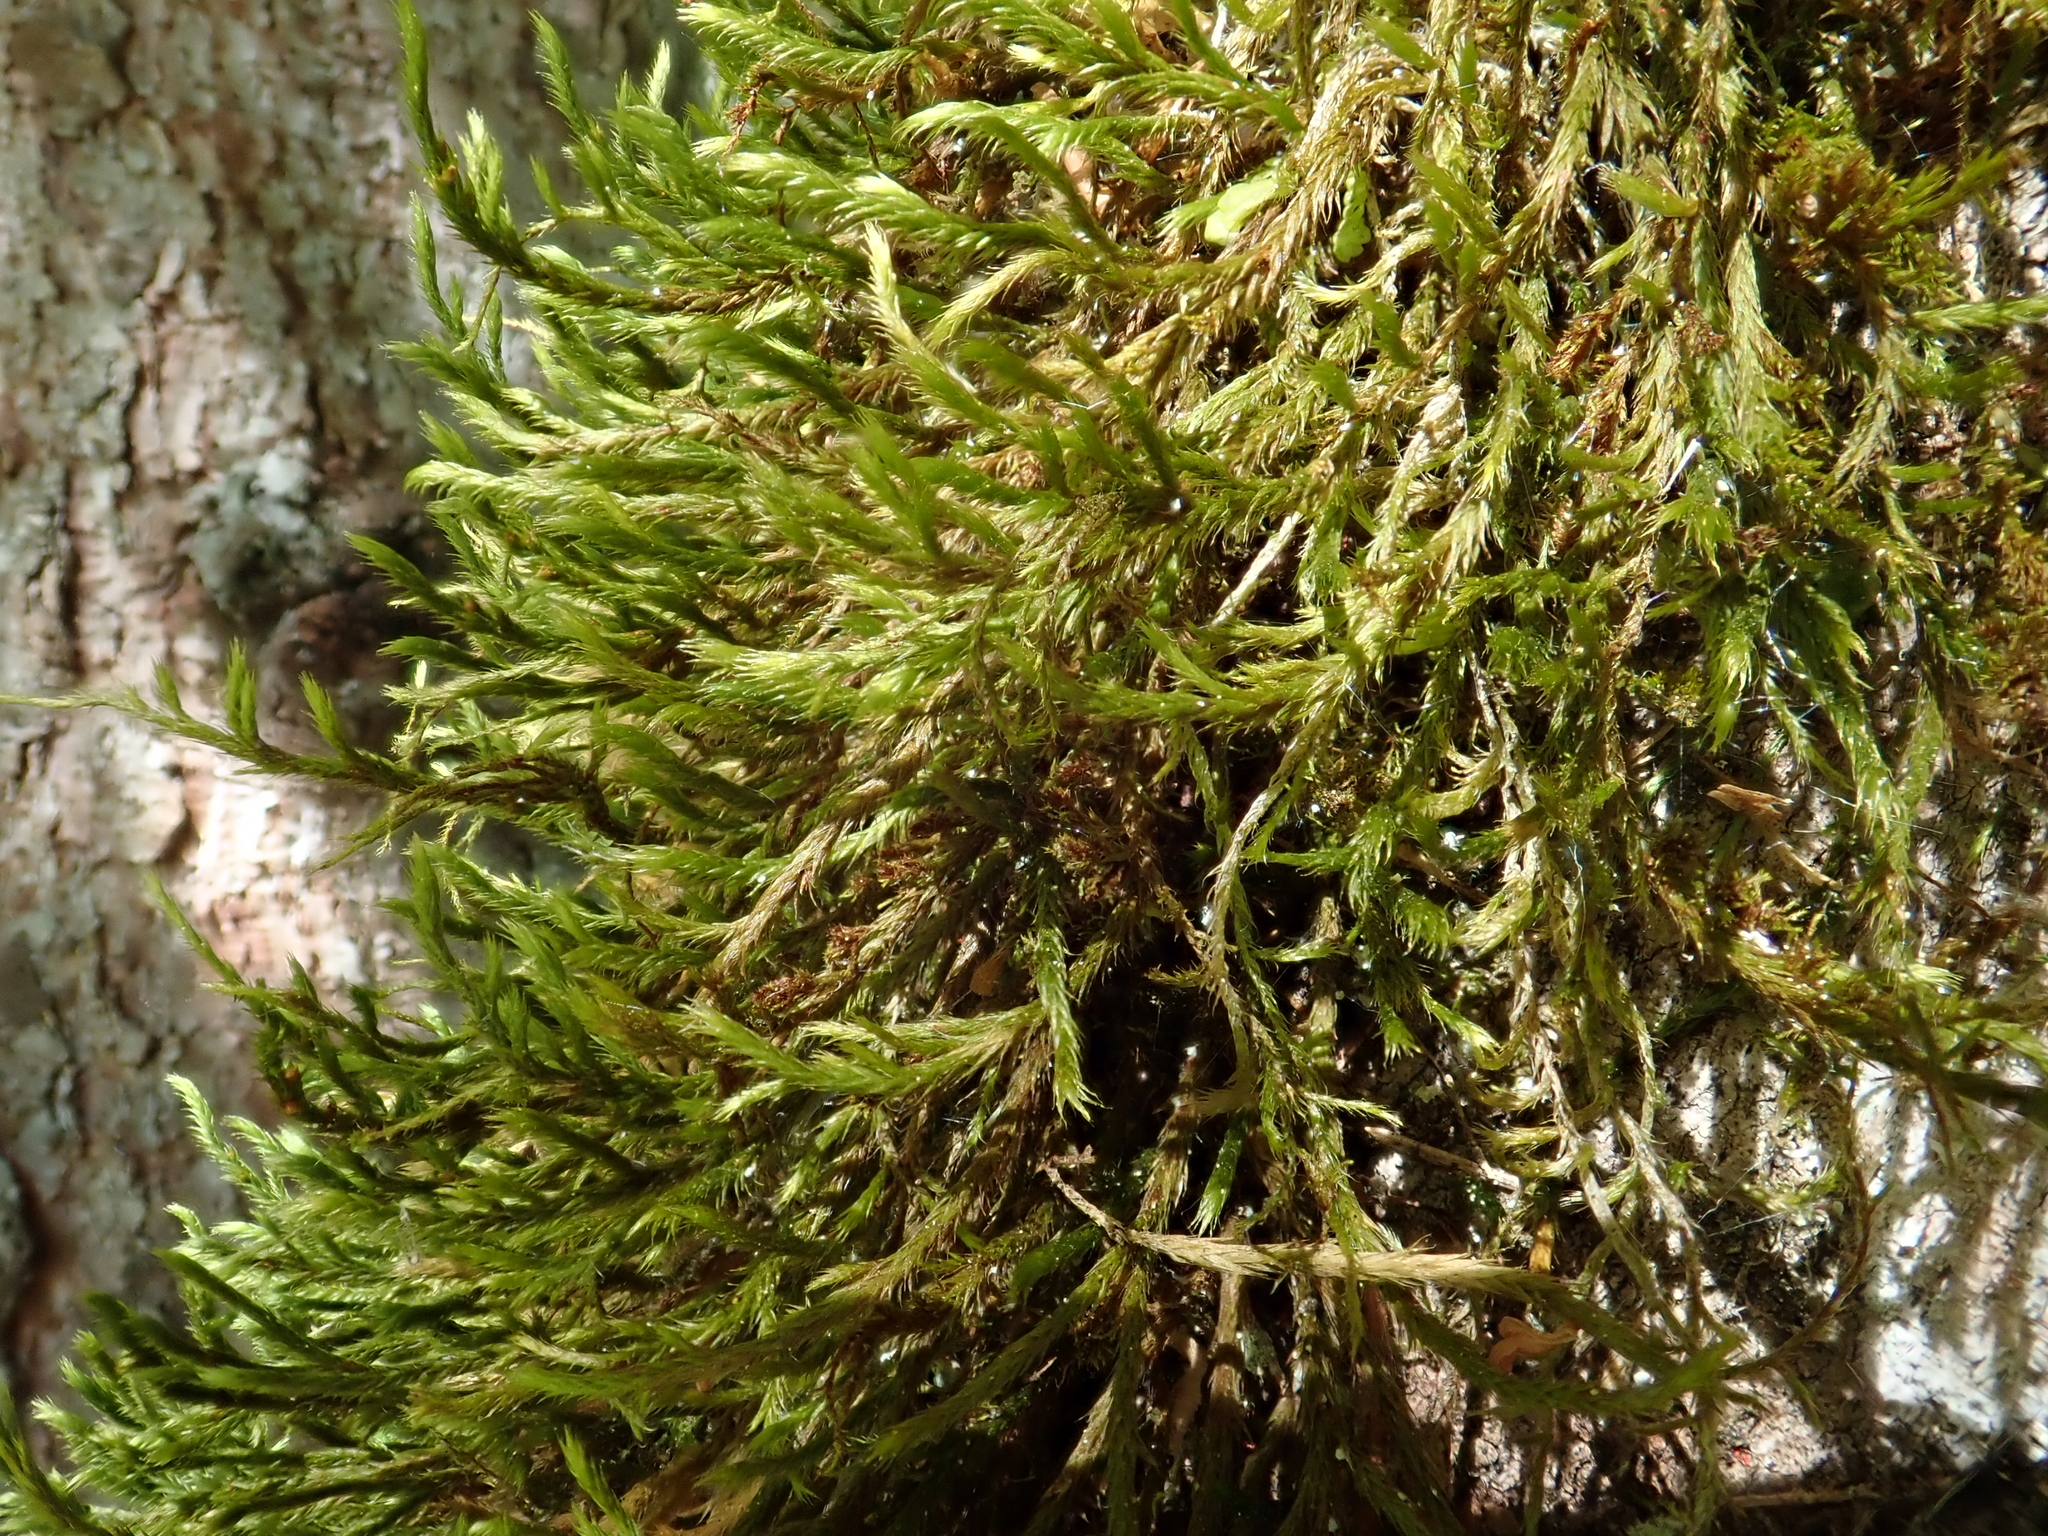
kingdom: Plantae
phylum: Bryophyta
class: Bryopsida
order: Hypnales
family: Antitrichiaceae
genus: Antitrichia
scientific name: Antitrichia curtipendula
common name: Pendulous wing-moss
